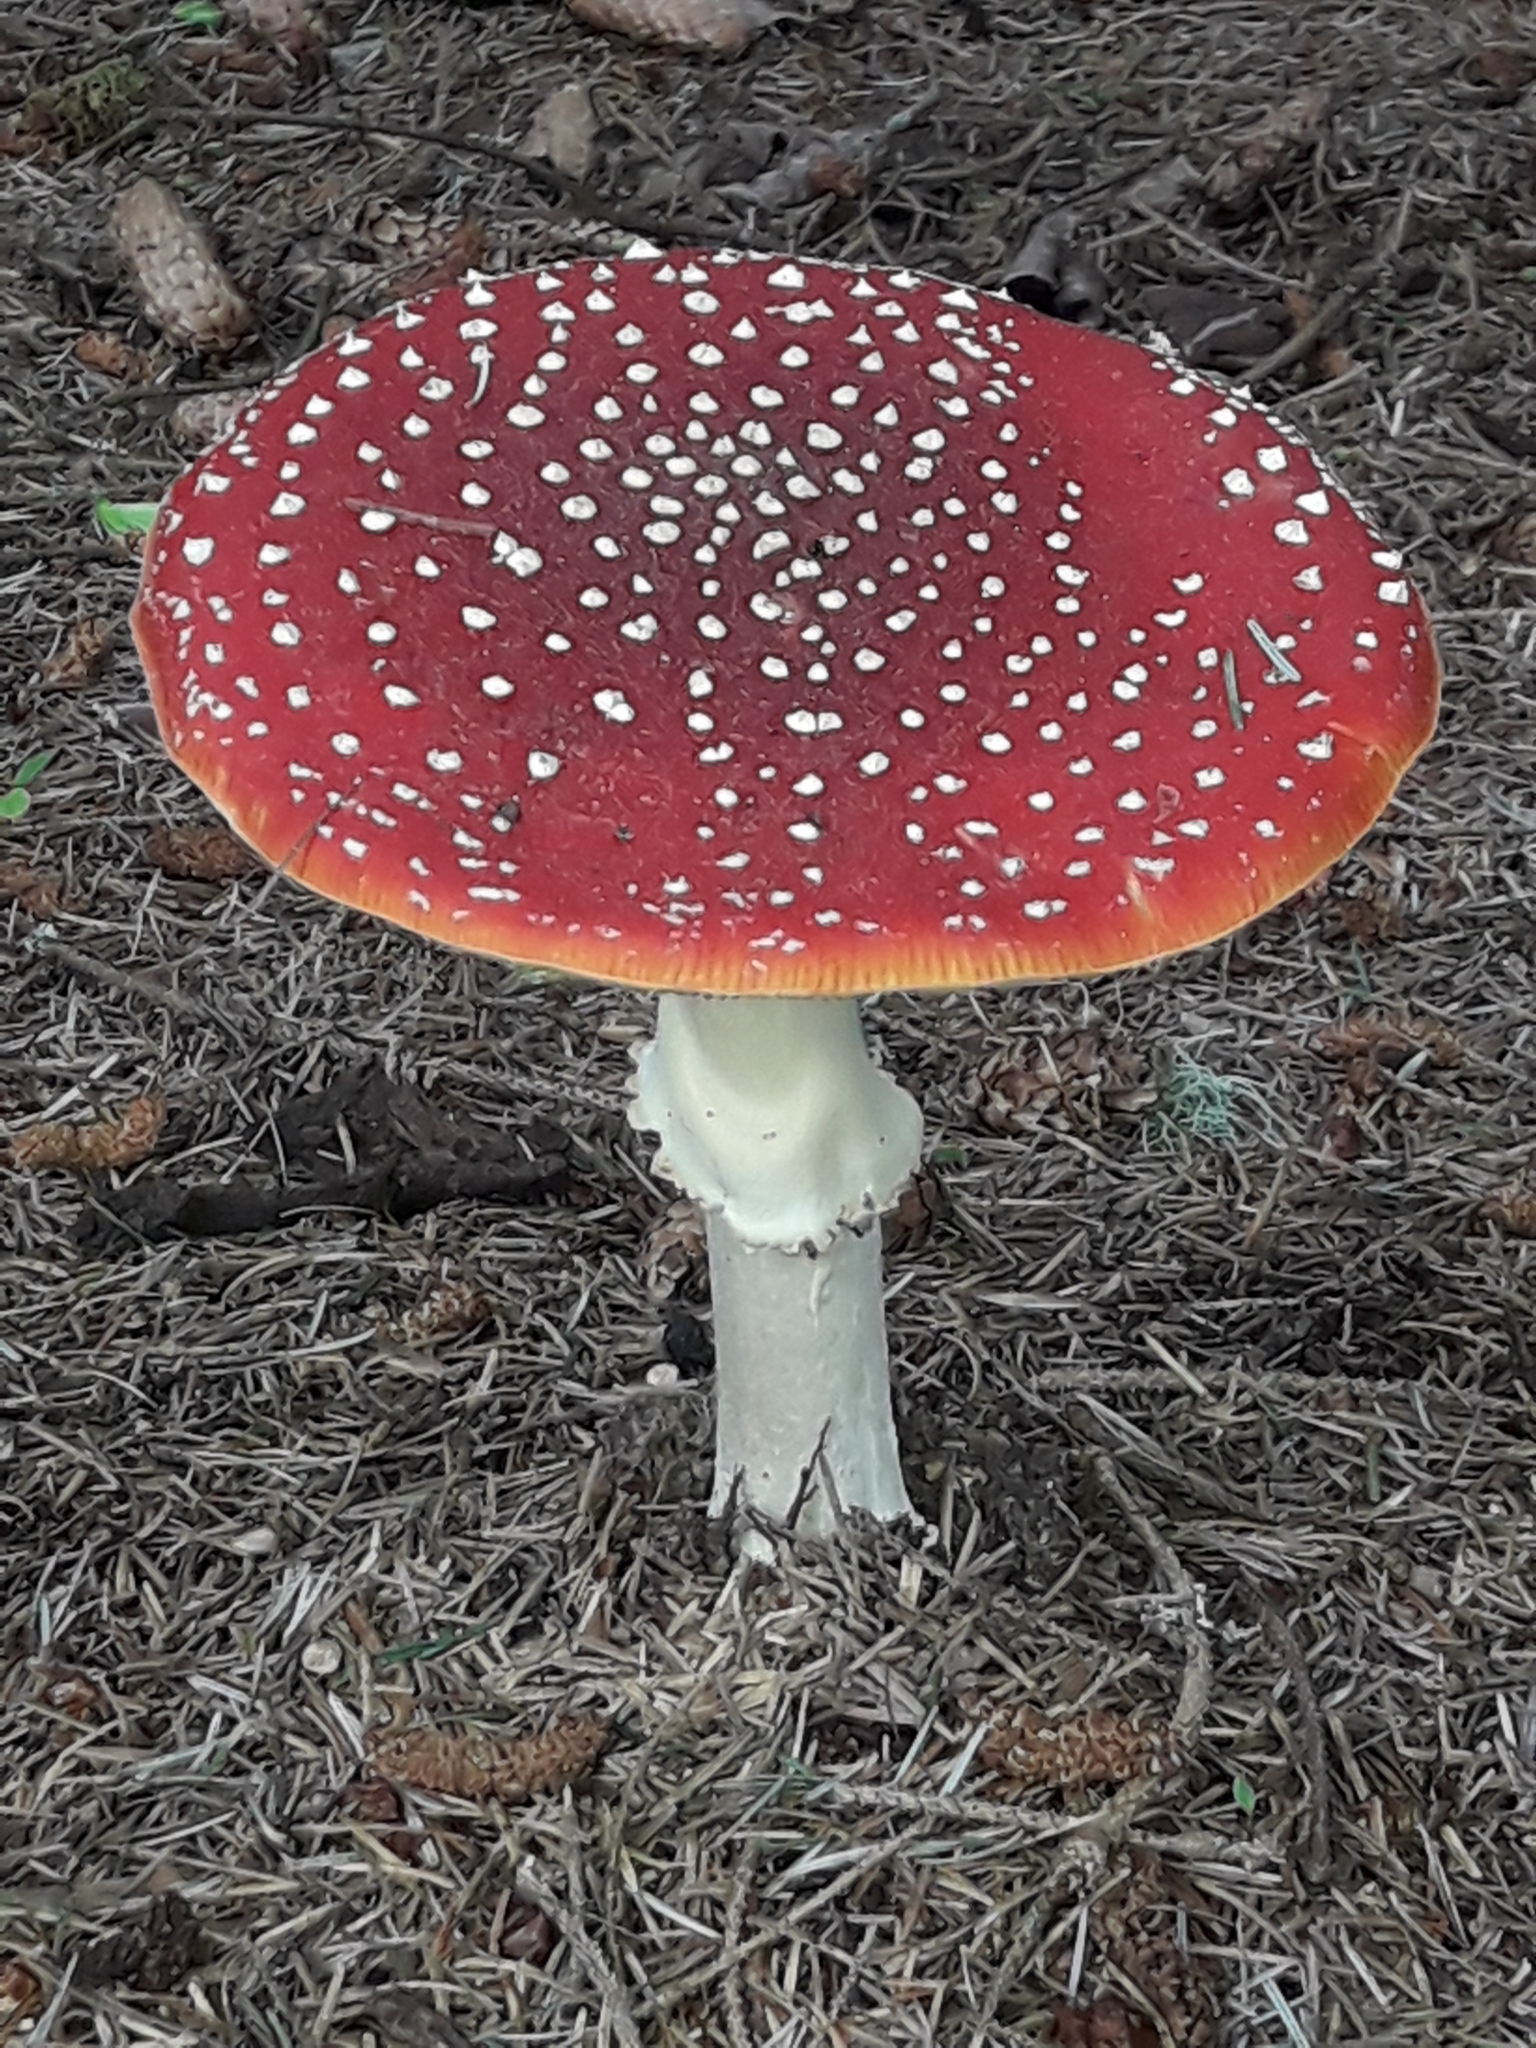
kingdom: Fungi
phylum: Basidiomycota
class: Agaricomycetes
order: Agaricales
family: Amanitaceae
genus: Amanita
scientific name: Amanita muscaria
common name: Fly agaric
